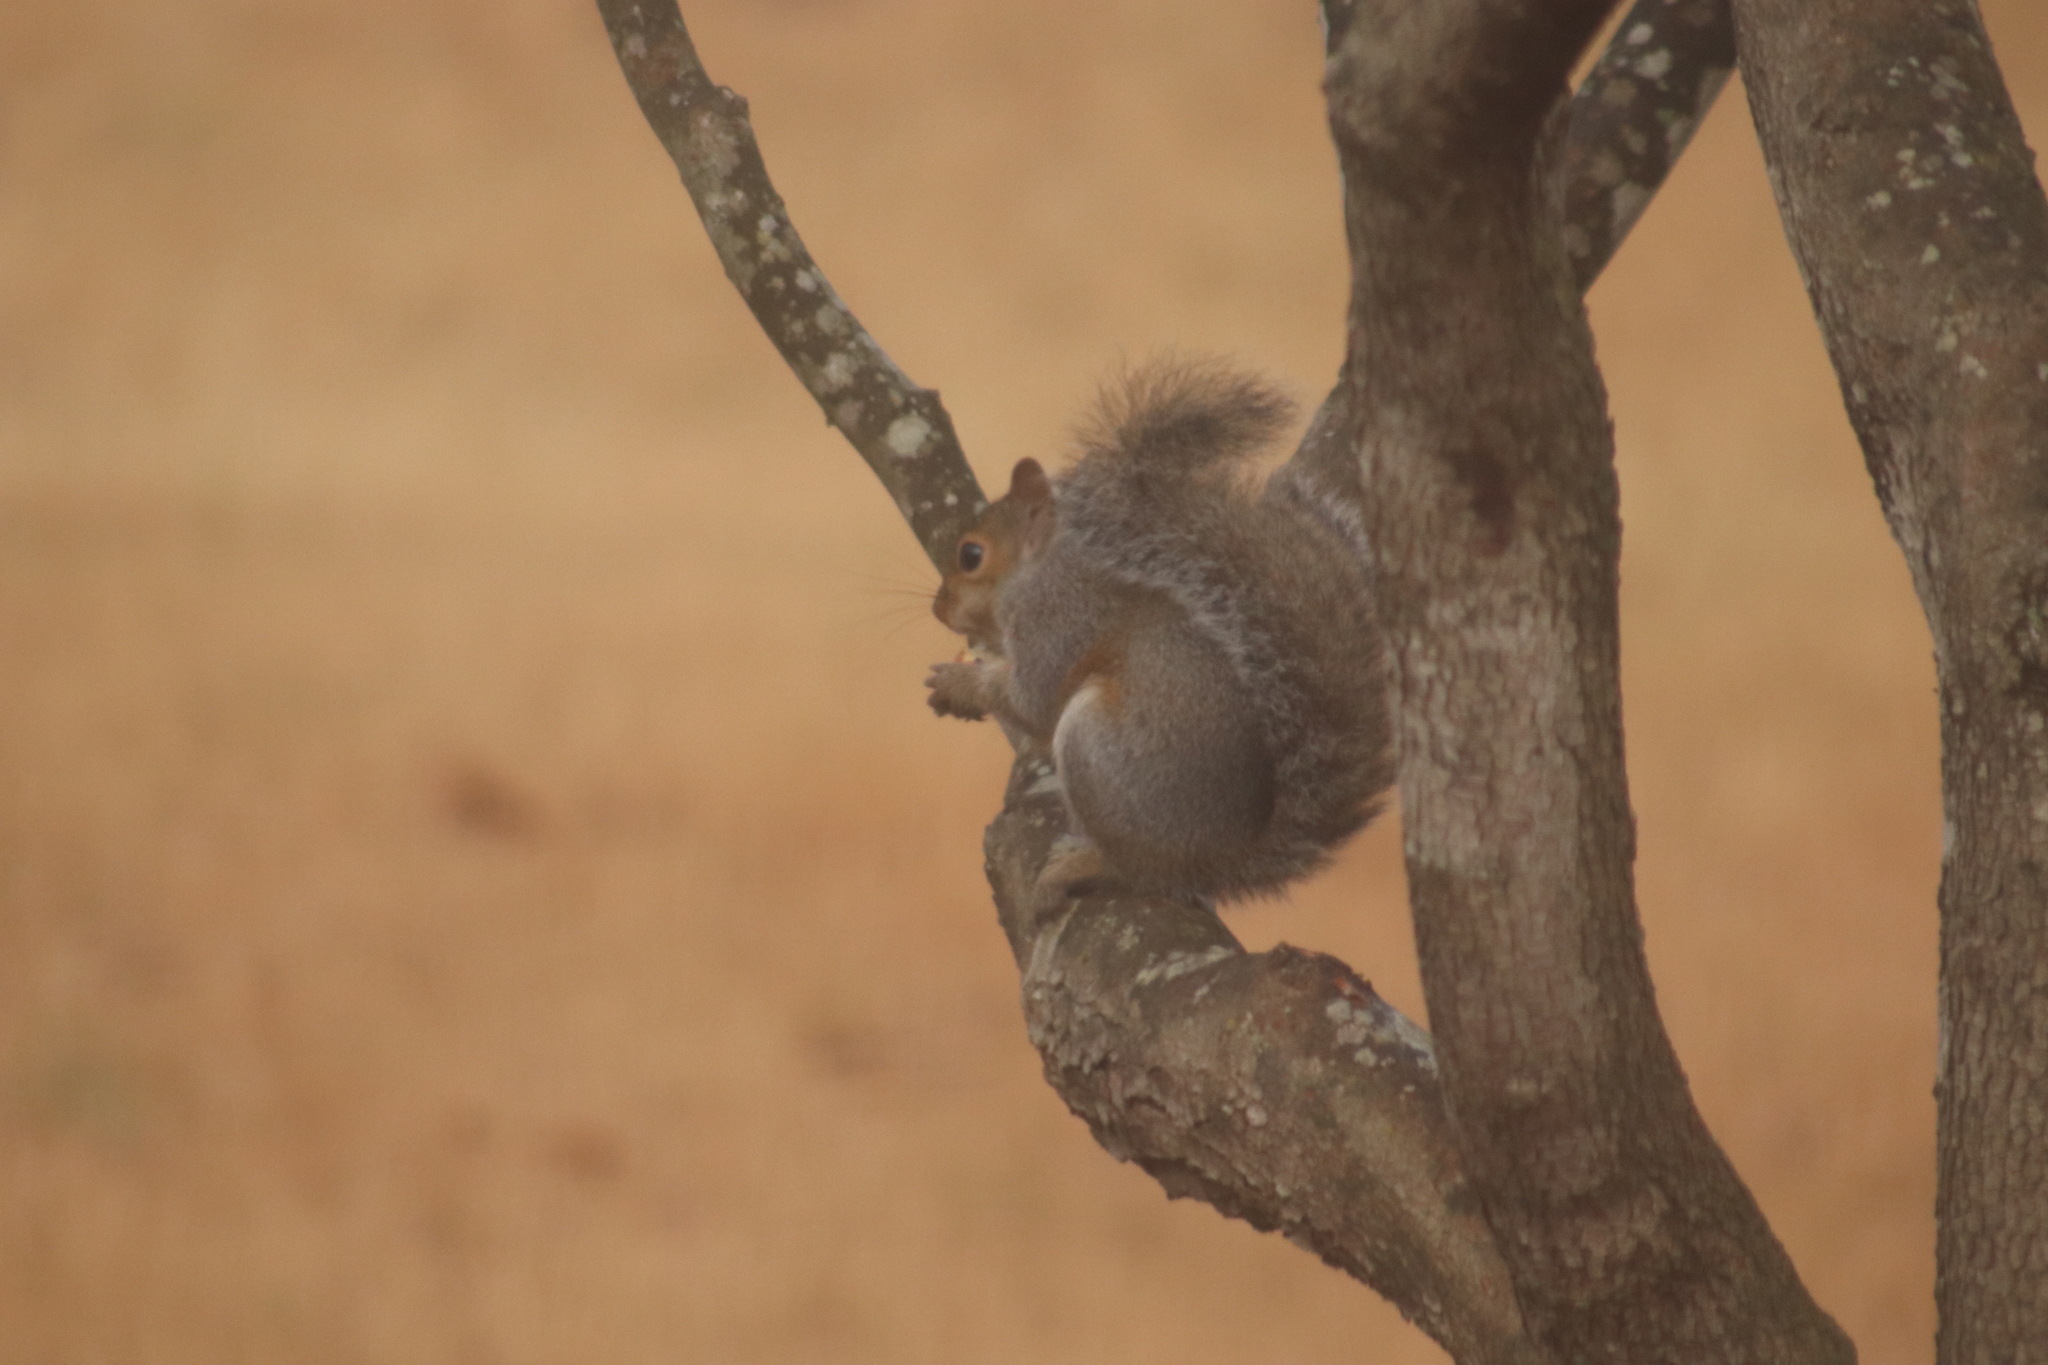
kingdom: Animalia
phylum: Chordata
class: Mammalia
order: Rodentia
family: Sciuridae
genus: Sciurus
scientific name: Sciurus carolinensis
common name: Eastern gray squirrel
